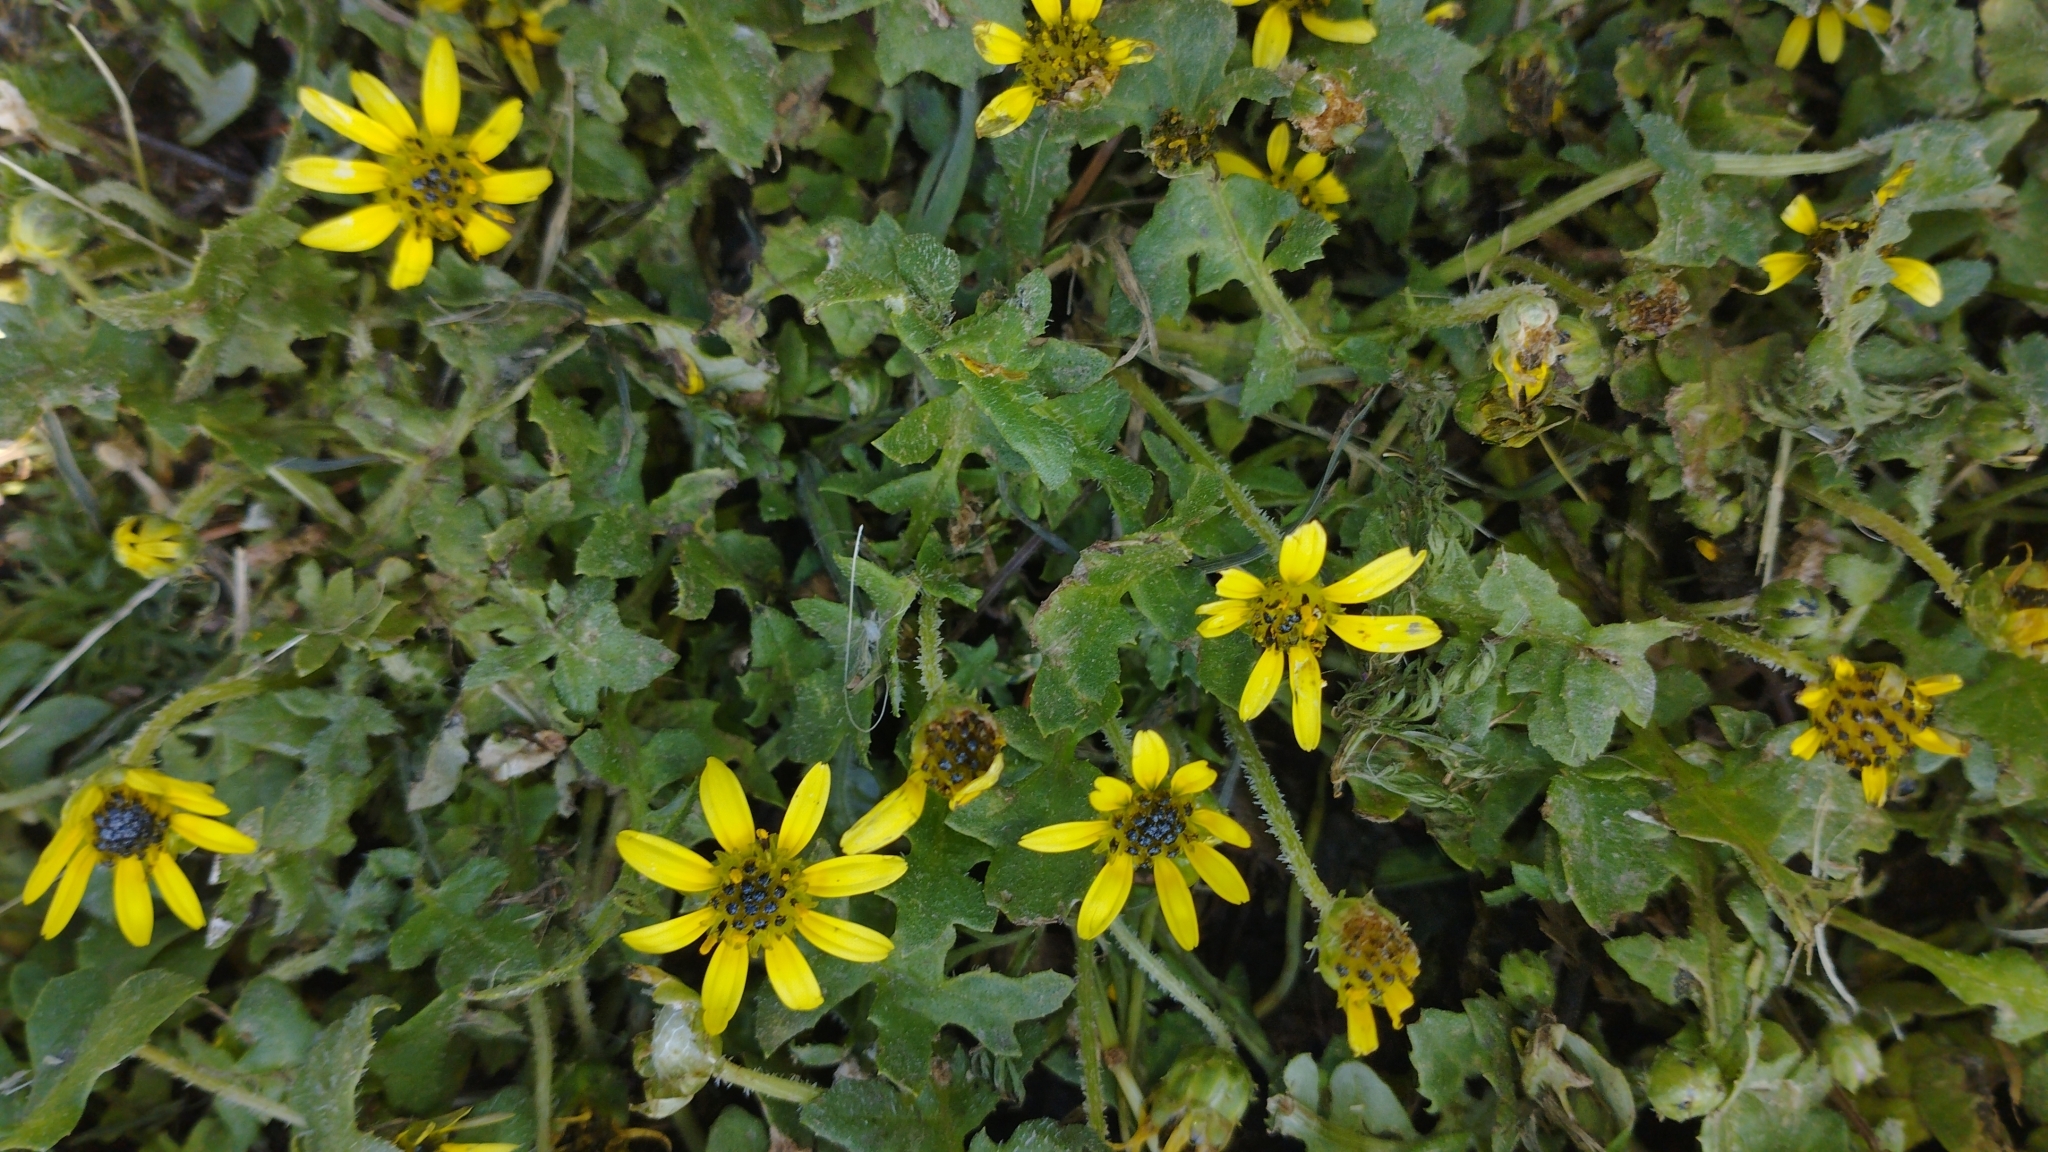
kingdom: Plantae
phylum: Tracheophyta
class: Magnoliopsida
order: Asterales
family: Asteraceae
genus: Arctotheca
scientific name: Arctotheca calendula
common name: Capeweed
